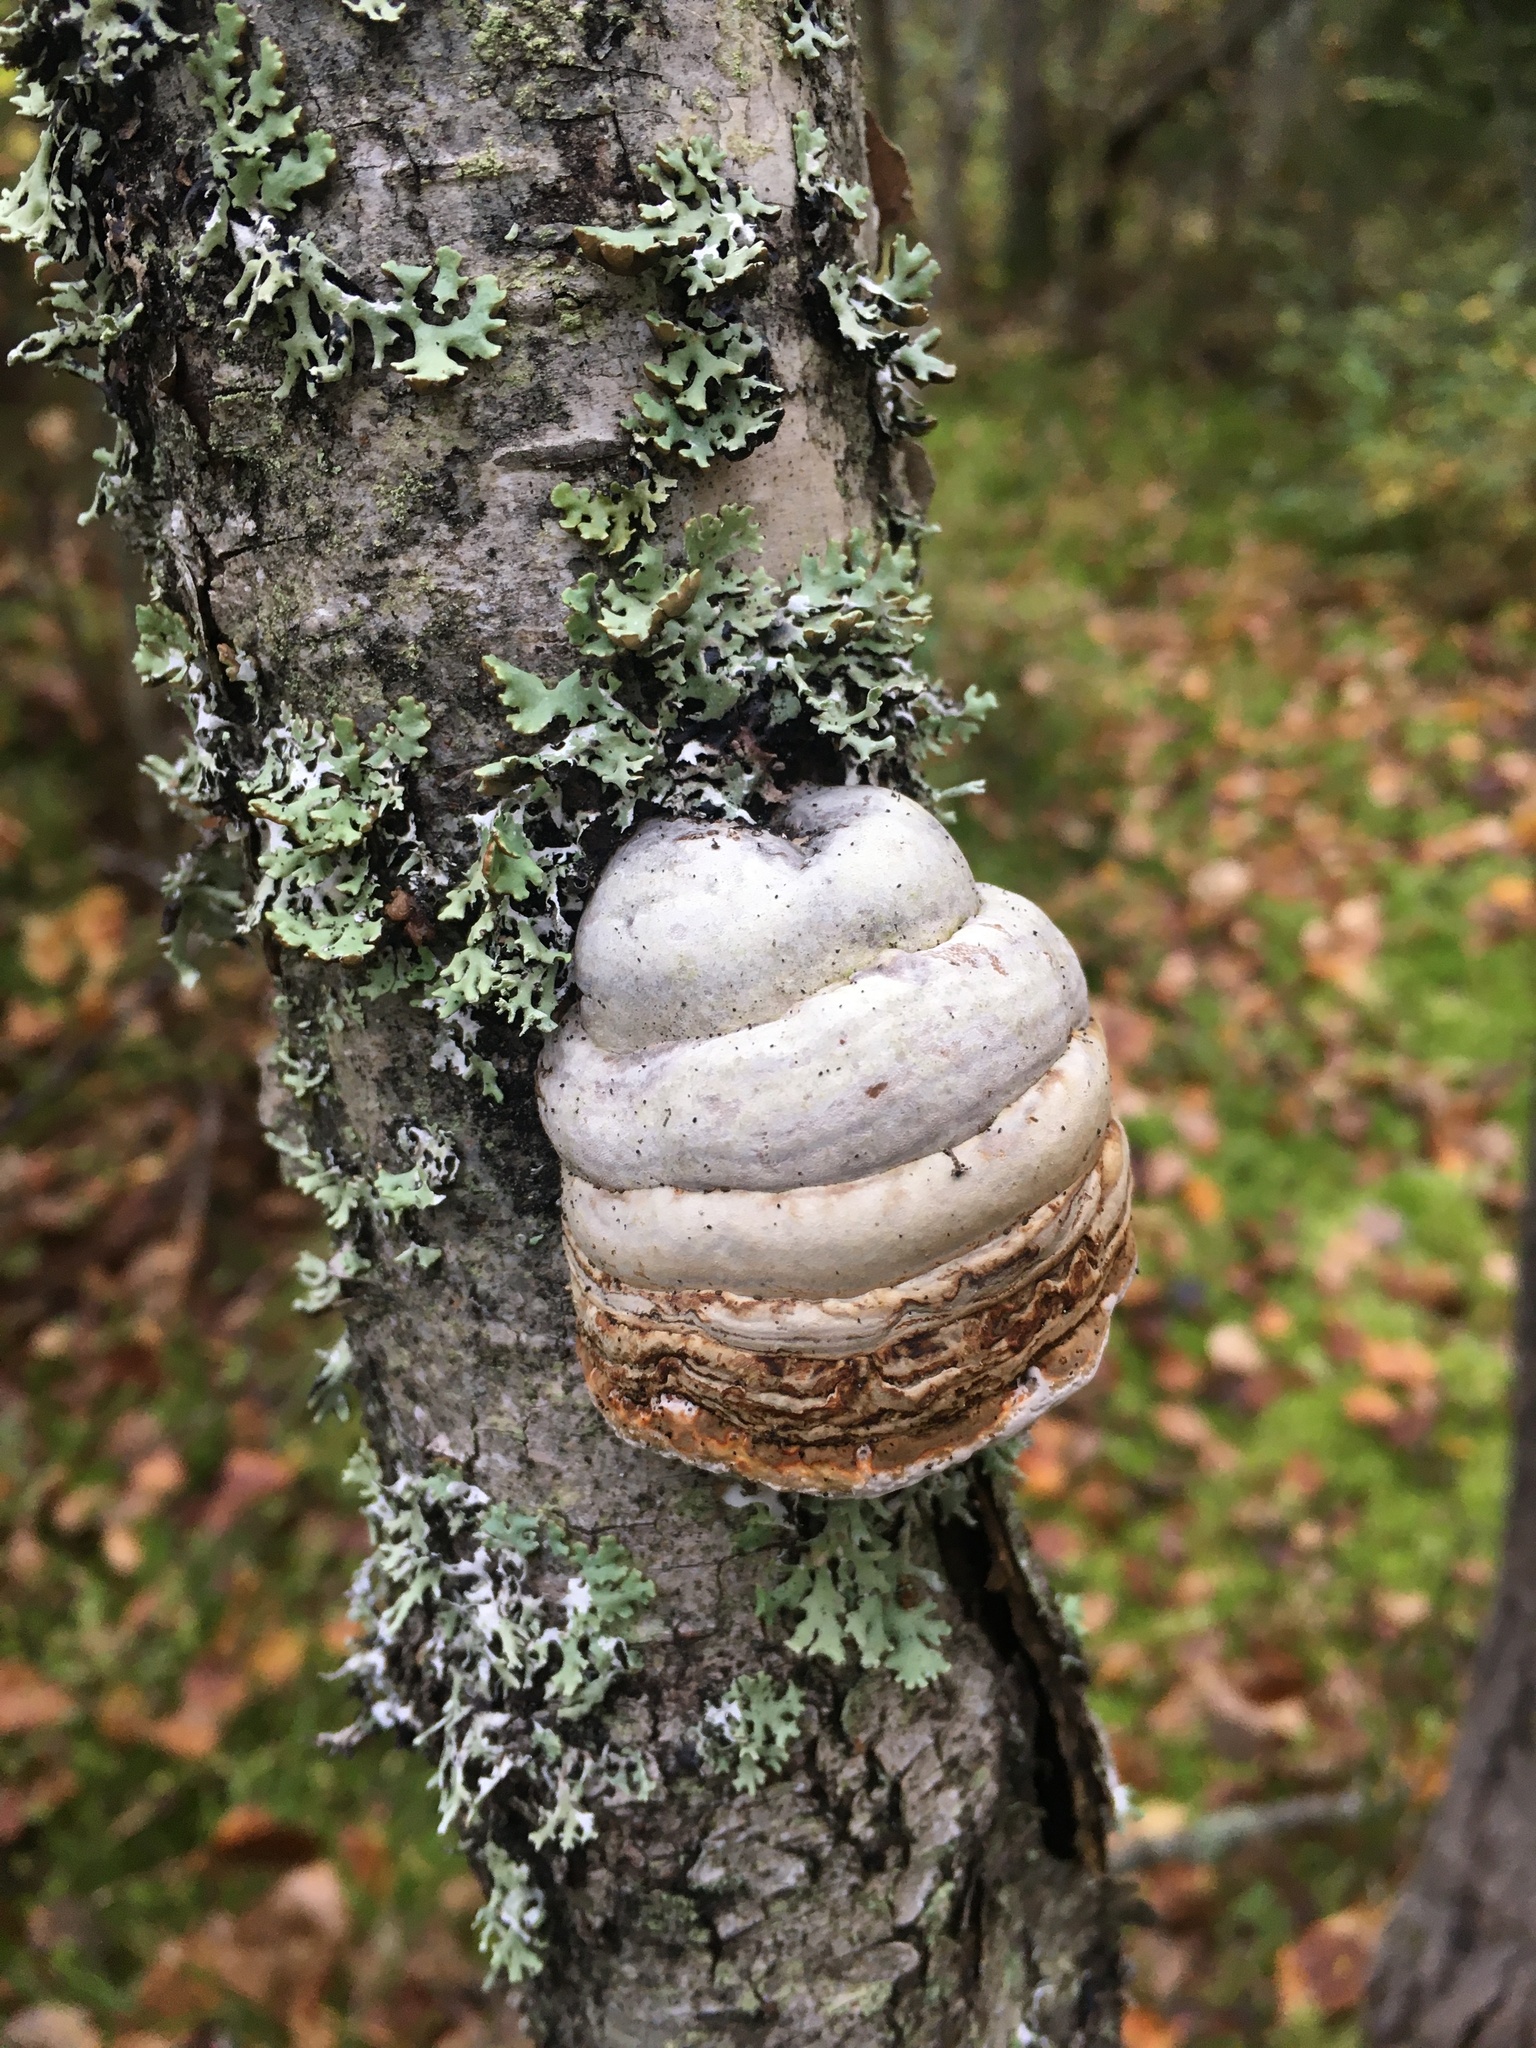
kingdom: Fungi
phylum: Basidiomycota
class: Agaricomycetes
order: Polyporales
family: Polyporaceae
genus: Fomes
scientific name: Fomes fomentarius
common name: Hoof fungus
